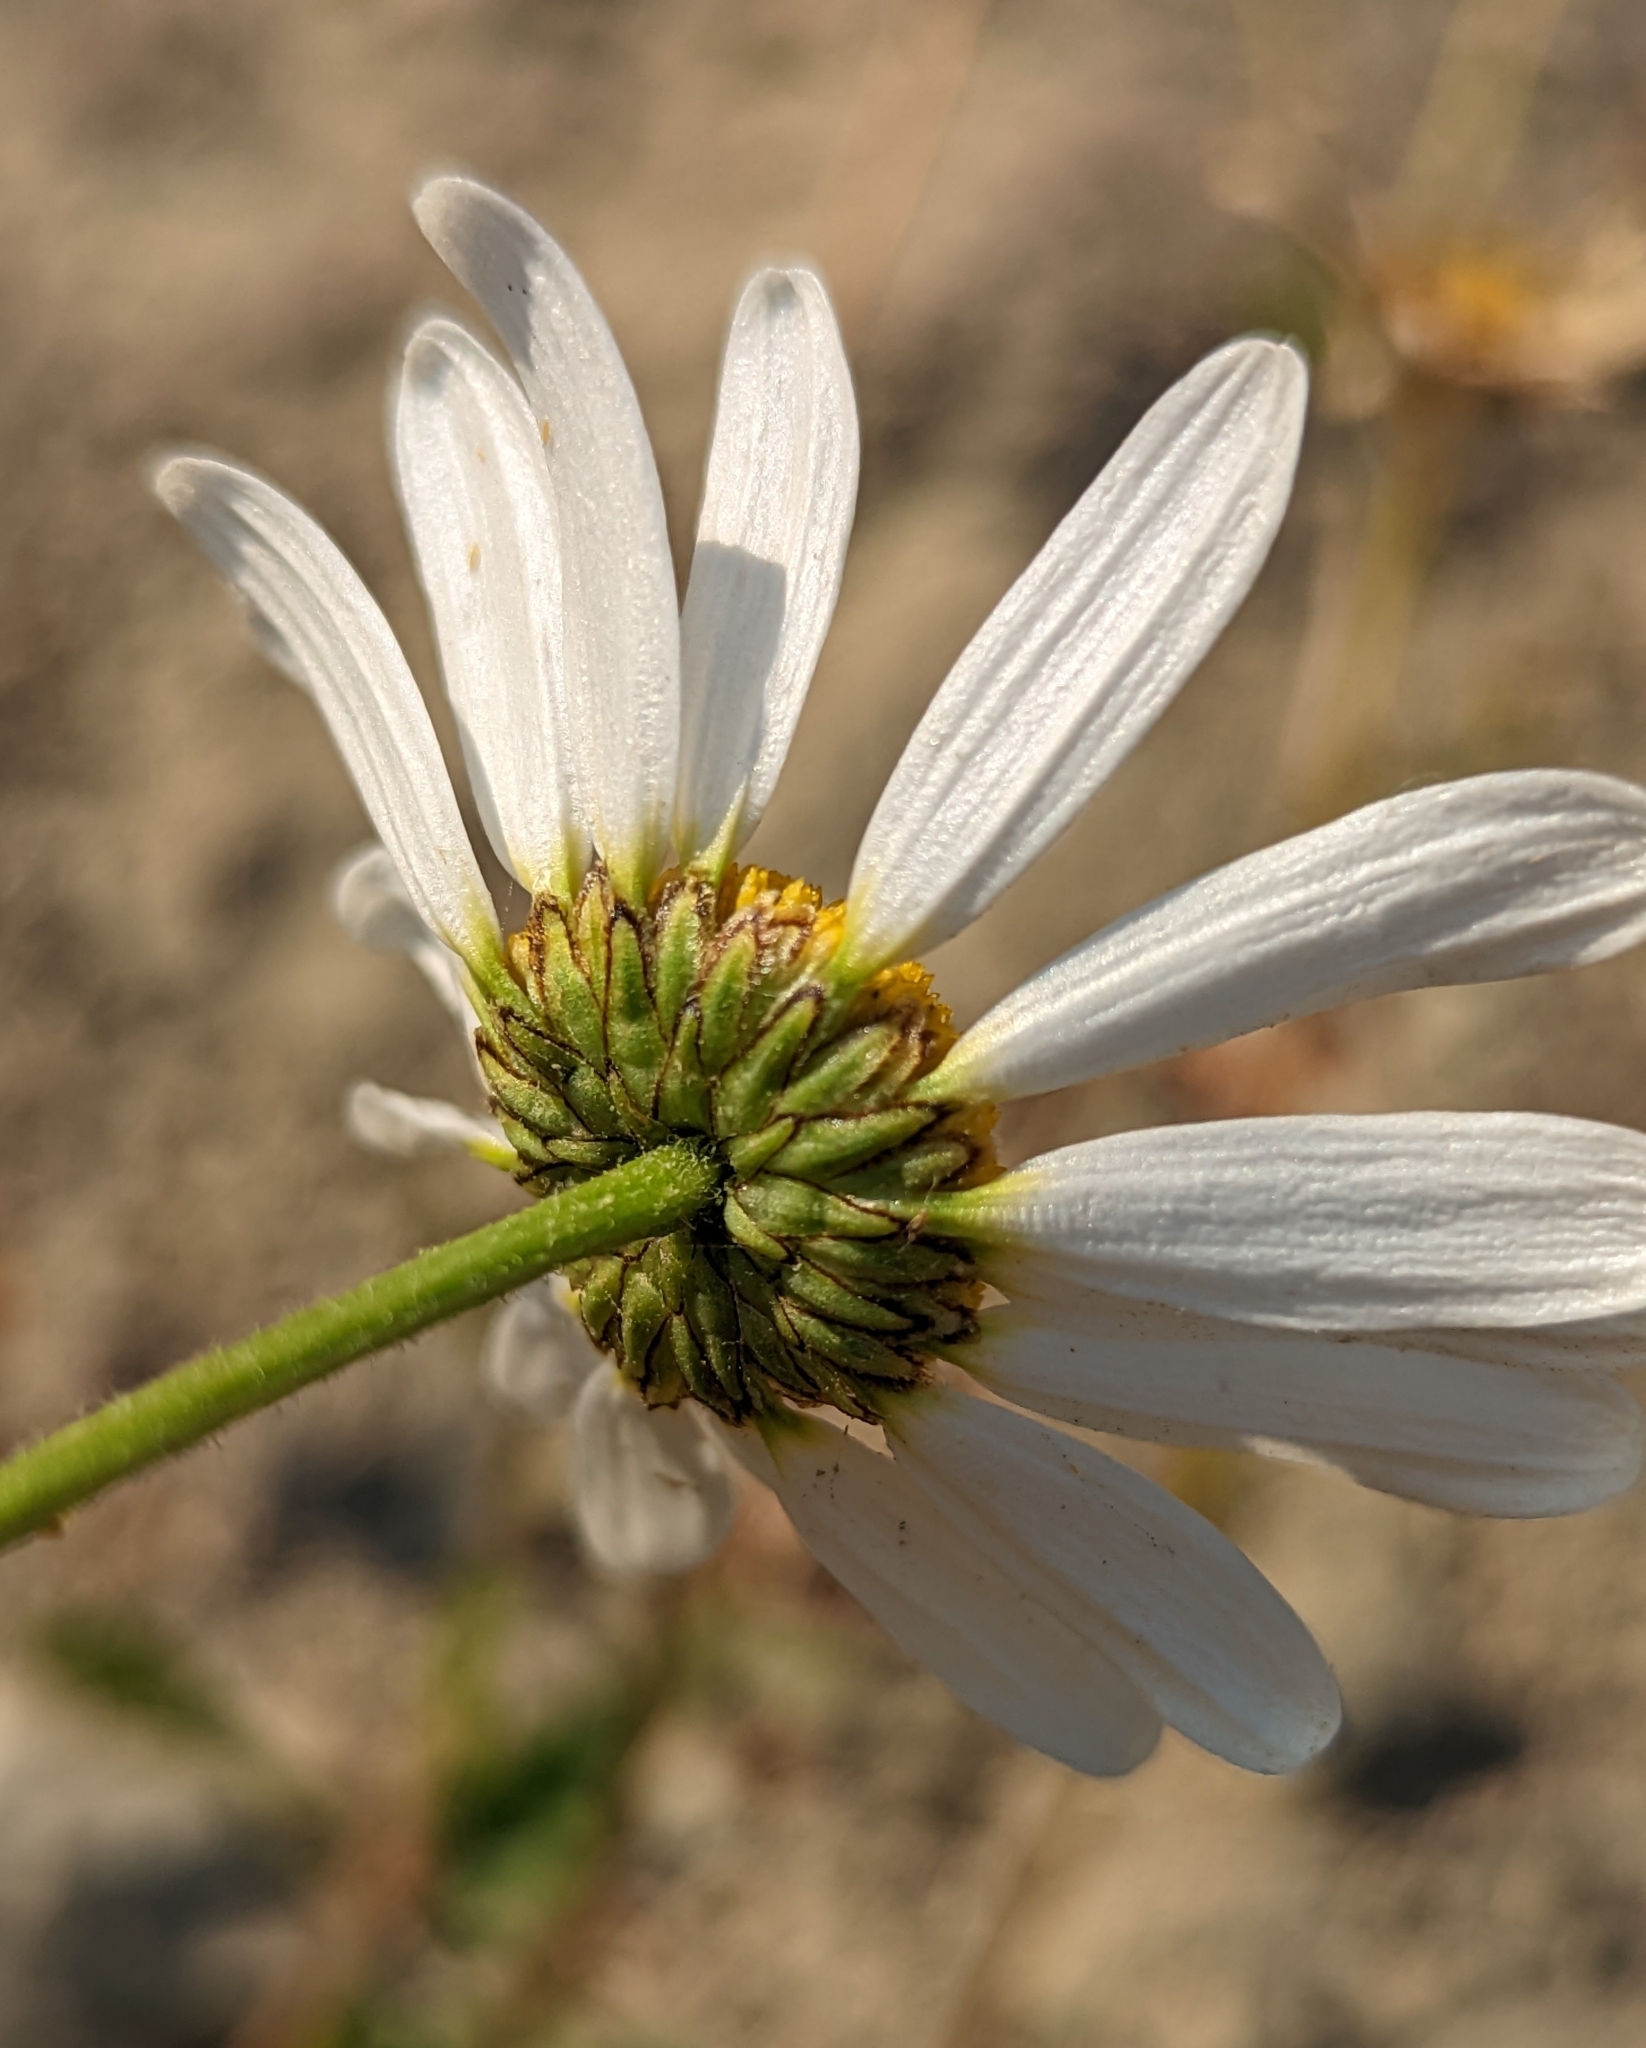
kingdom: Plantae
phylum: Tracheophyta
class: Magnoliopsida
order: Asterales
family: Asteraceae
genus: Leucanthemum
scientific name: Leucanthemum vulgare
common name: Oxeye daisy
